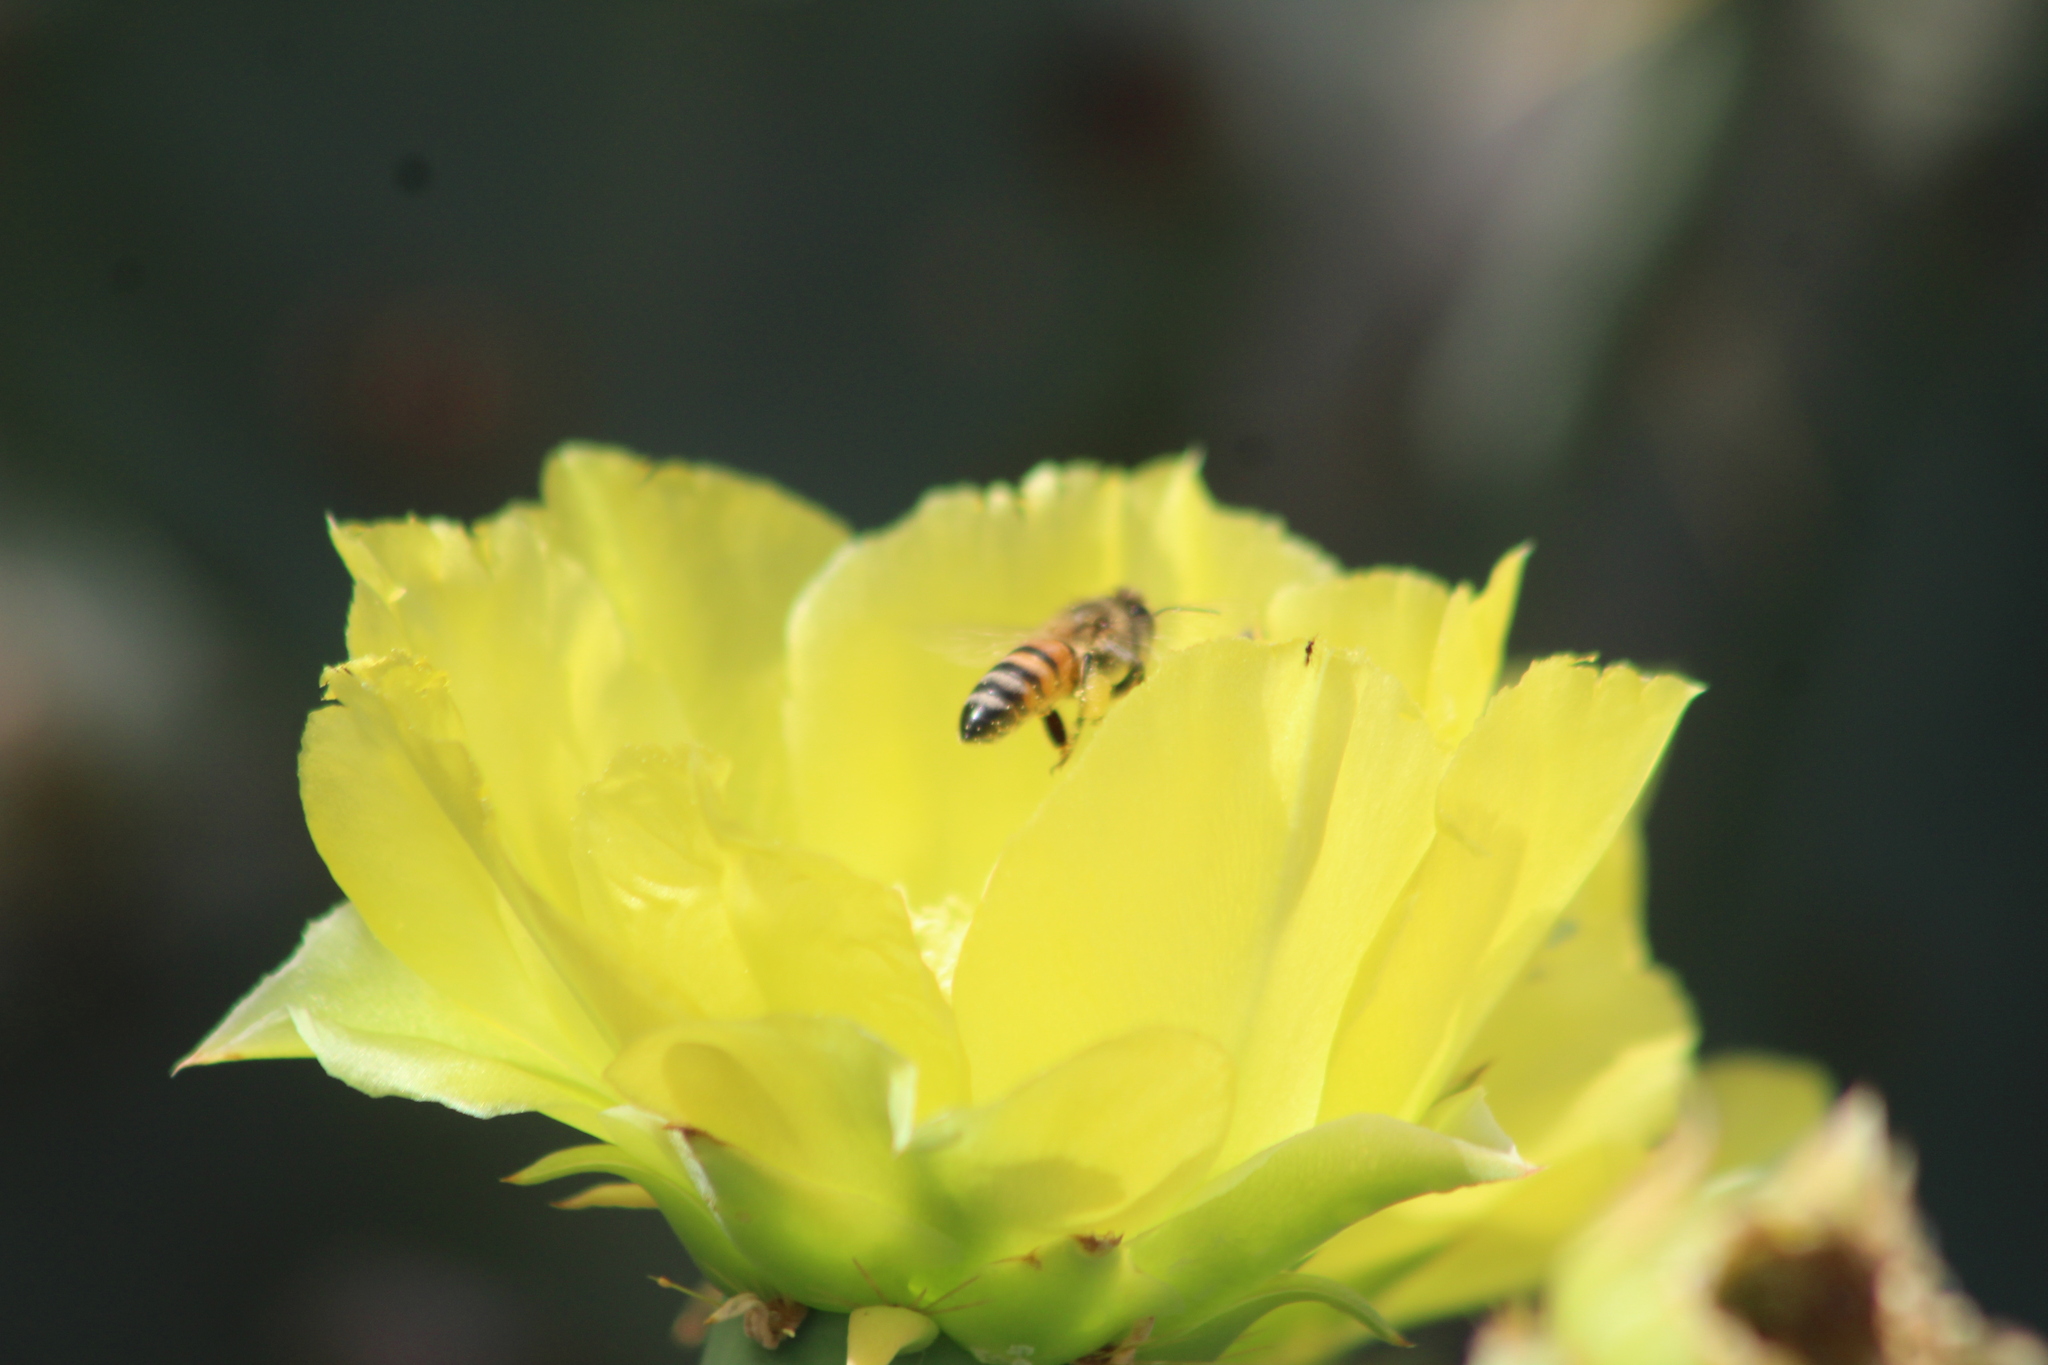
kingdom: Animalia
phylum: Arthropoda
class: Insecta
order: Hymenoptera
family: Apidae
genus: Apis
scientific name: Apis mellifera
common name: Honey bee
